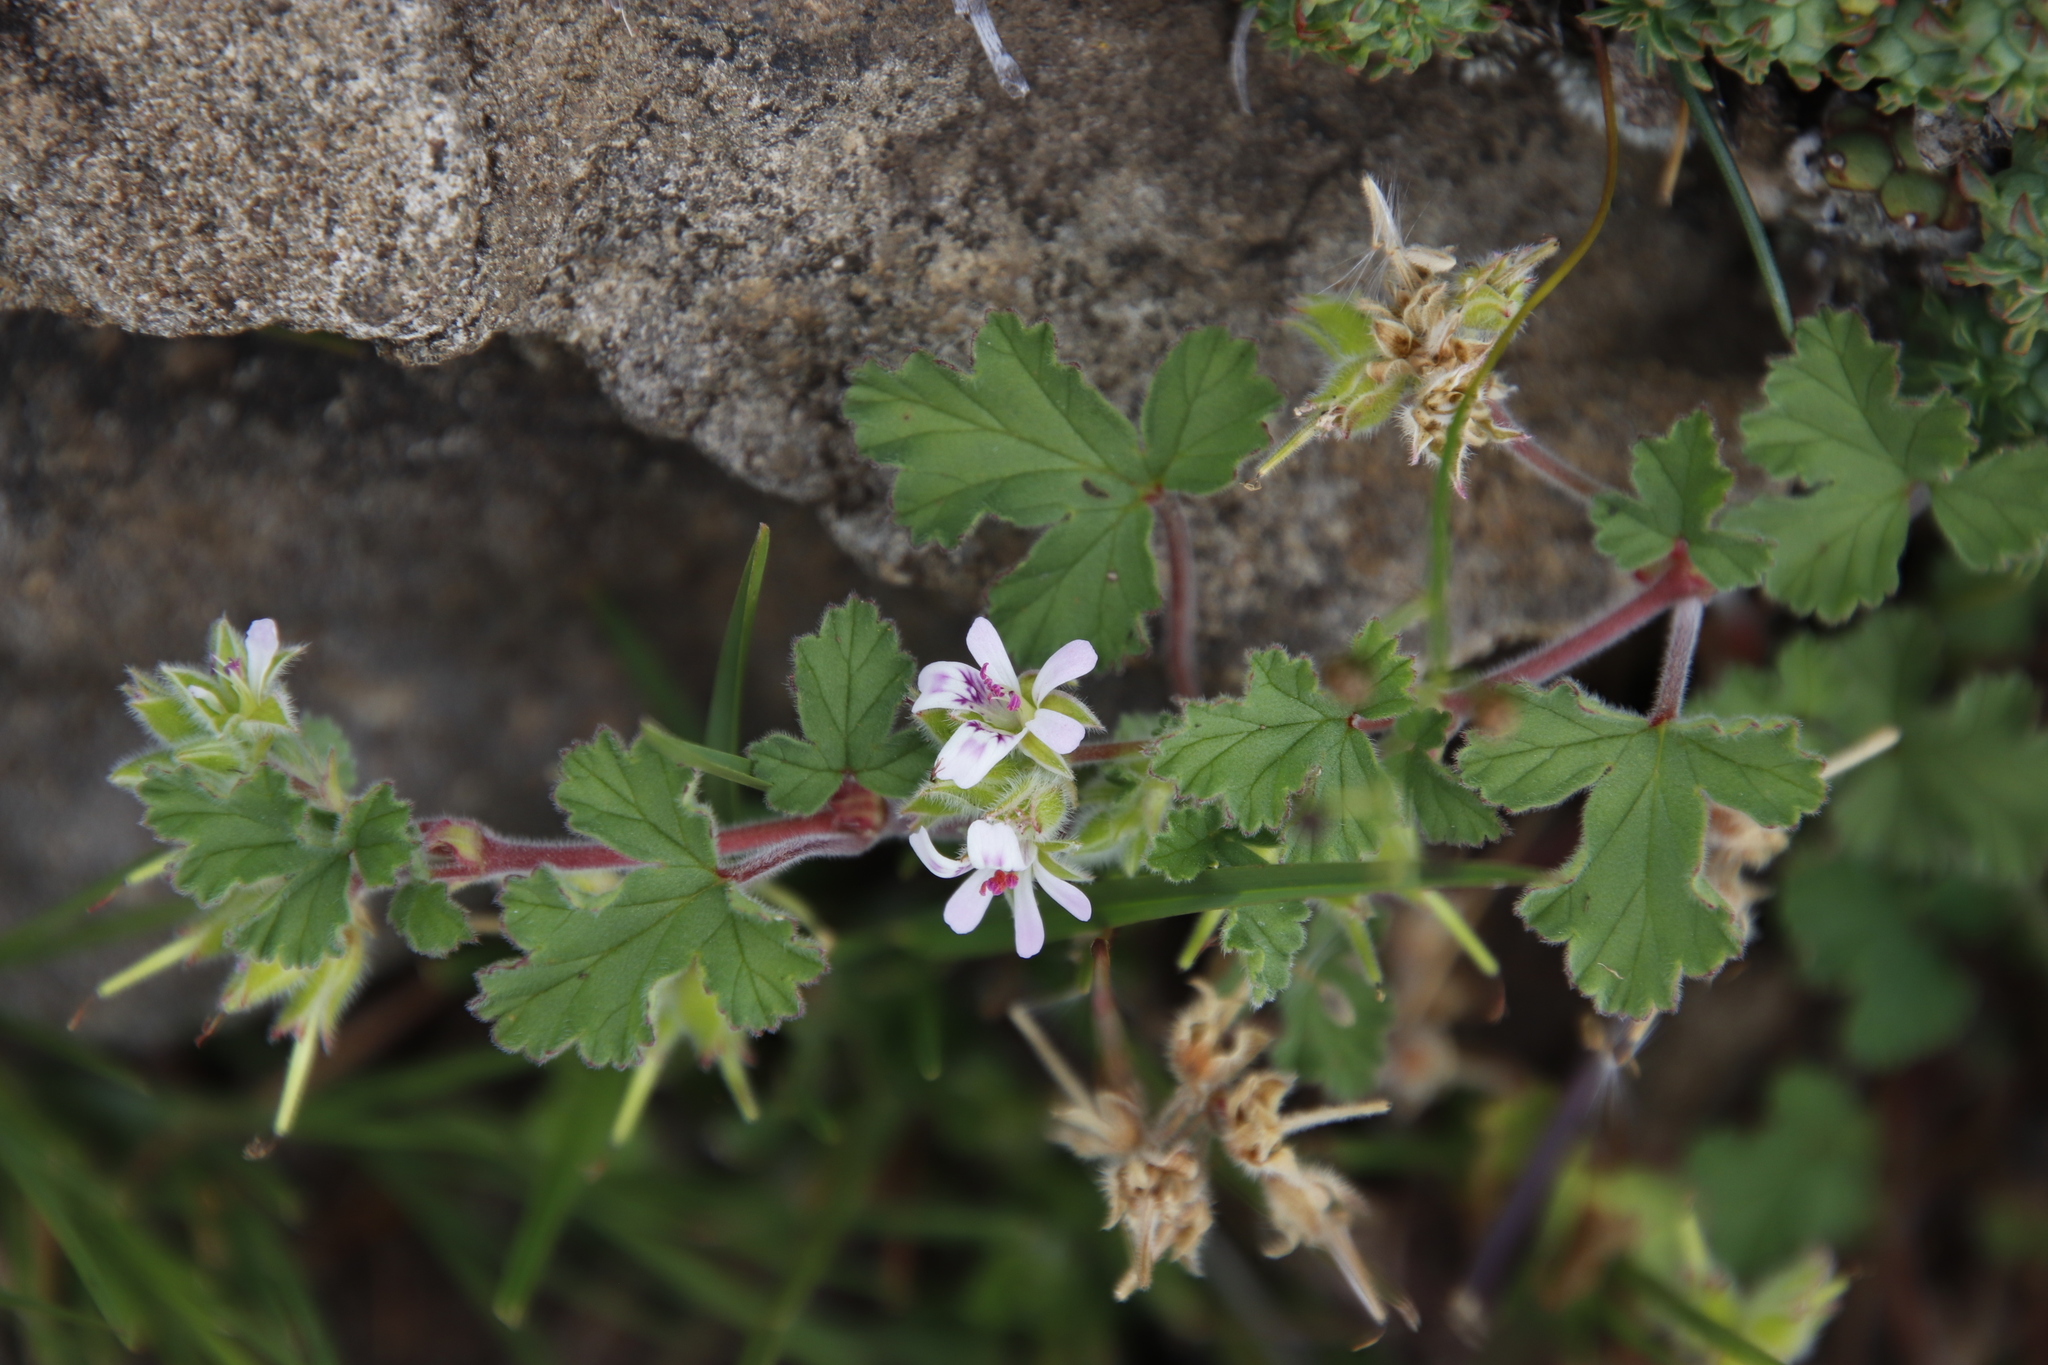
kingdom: Plantae
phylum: Tracheophyta
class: Magnoliopsida
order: Geraniales
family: Geraniaceae
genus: Pelargonium
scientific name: Pelargonium capituliforme
